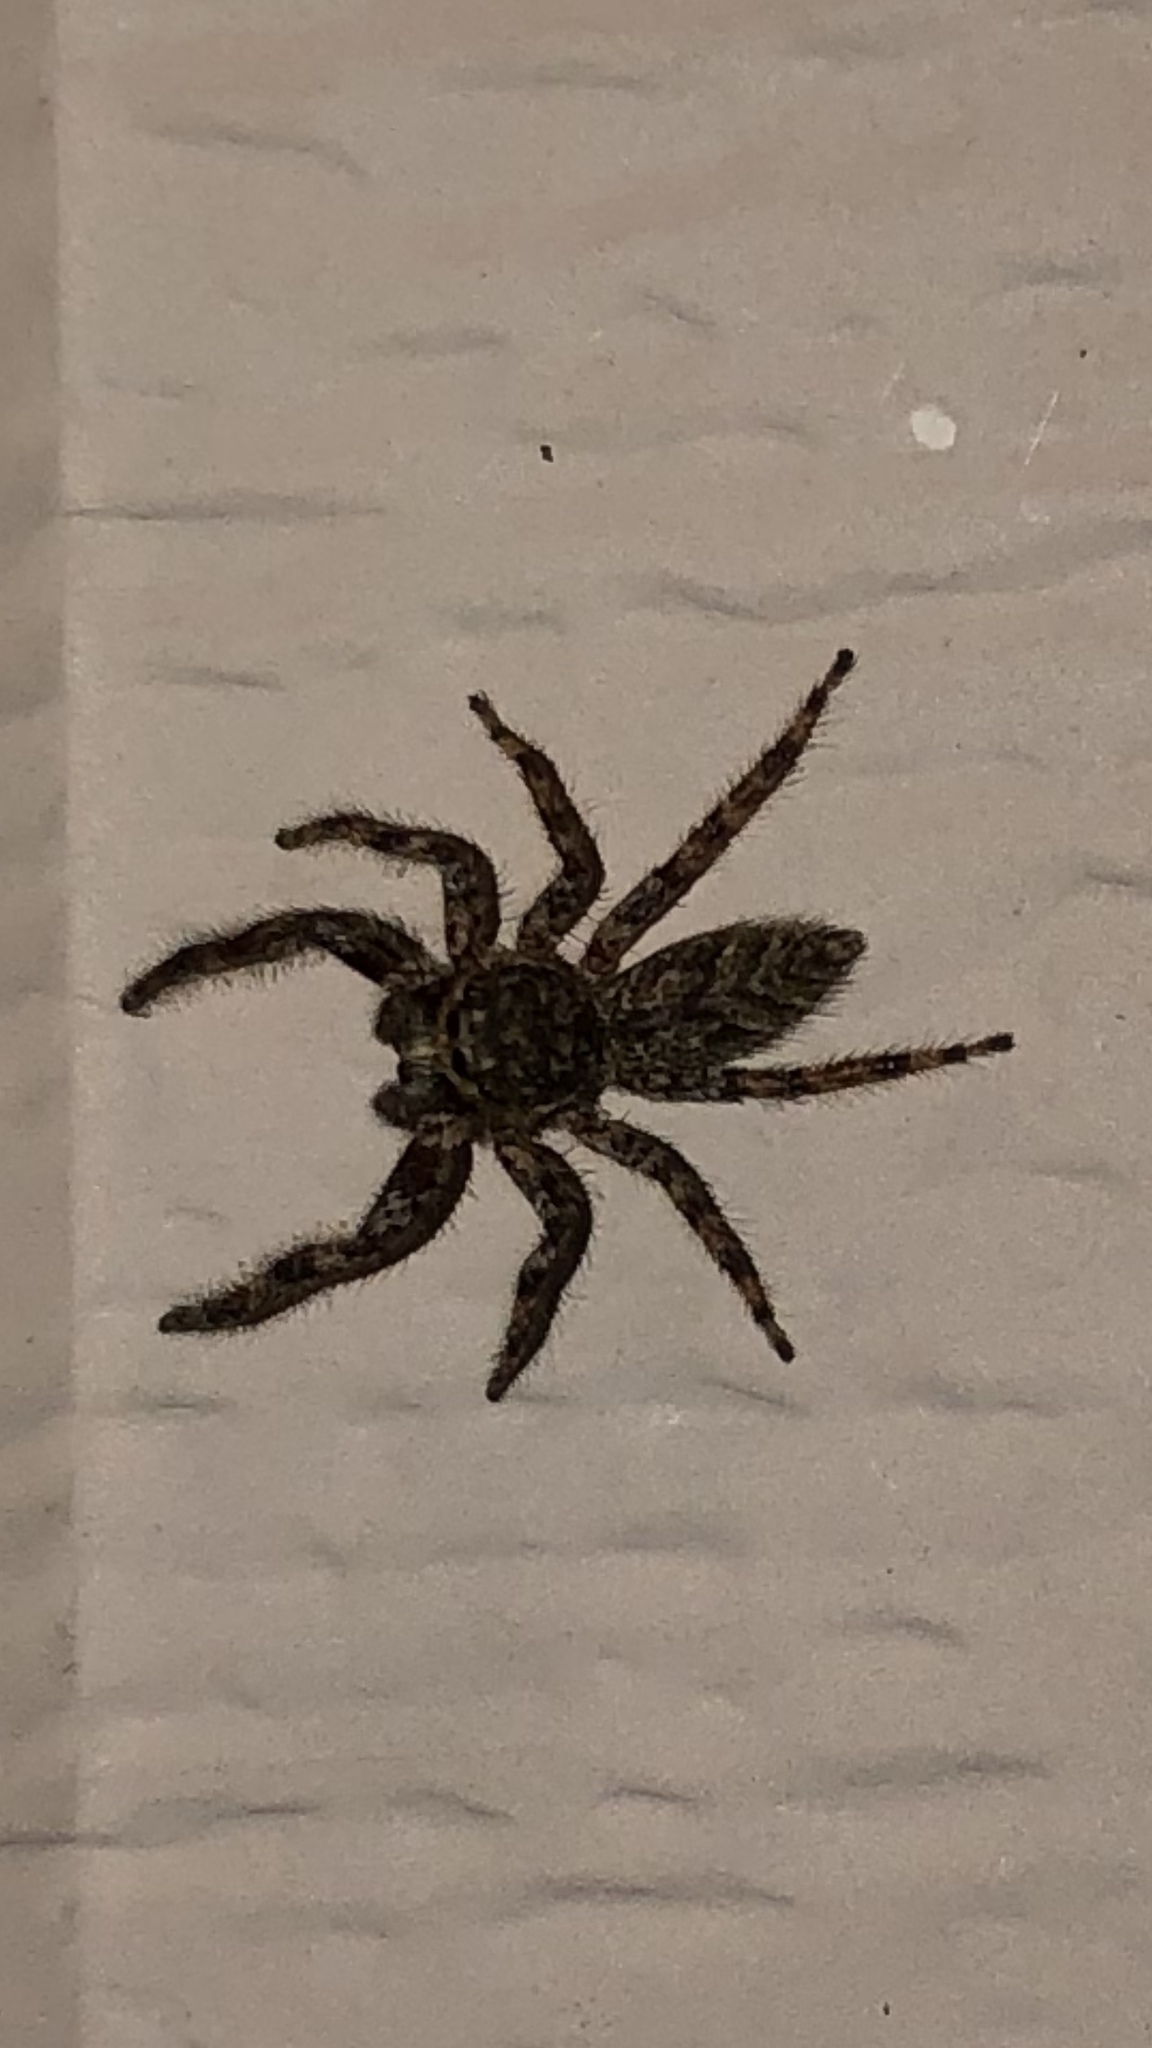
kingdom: Animalia
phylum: Arthropoda
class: Arachnida
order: Araneae
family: Salticidae
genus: Platycryptus
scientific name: Platycryptus undatus
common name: Tan jumping spider
